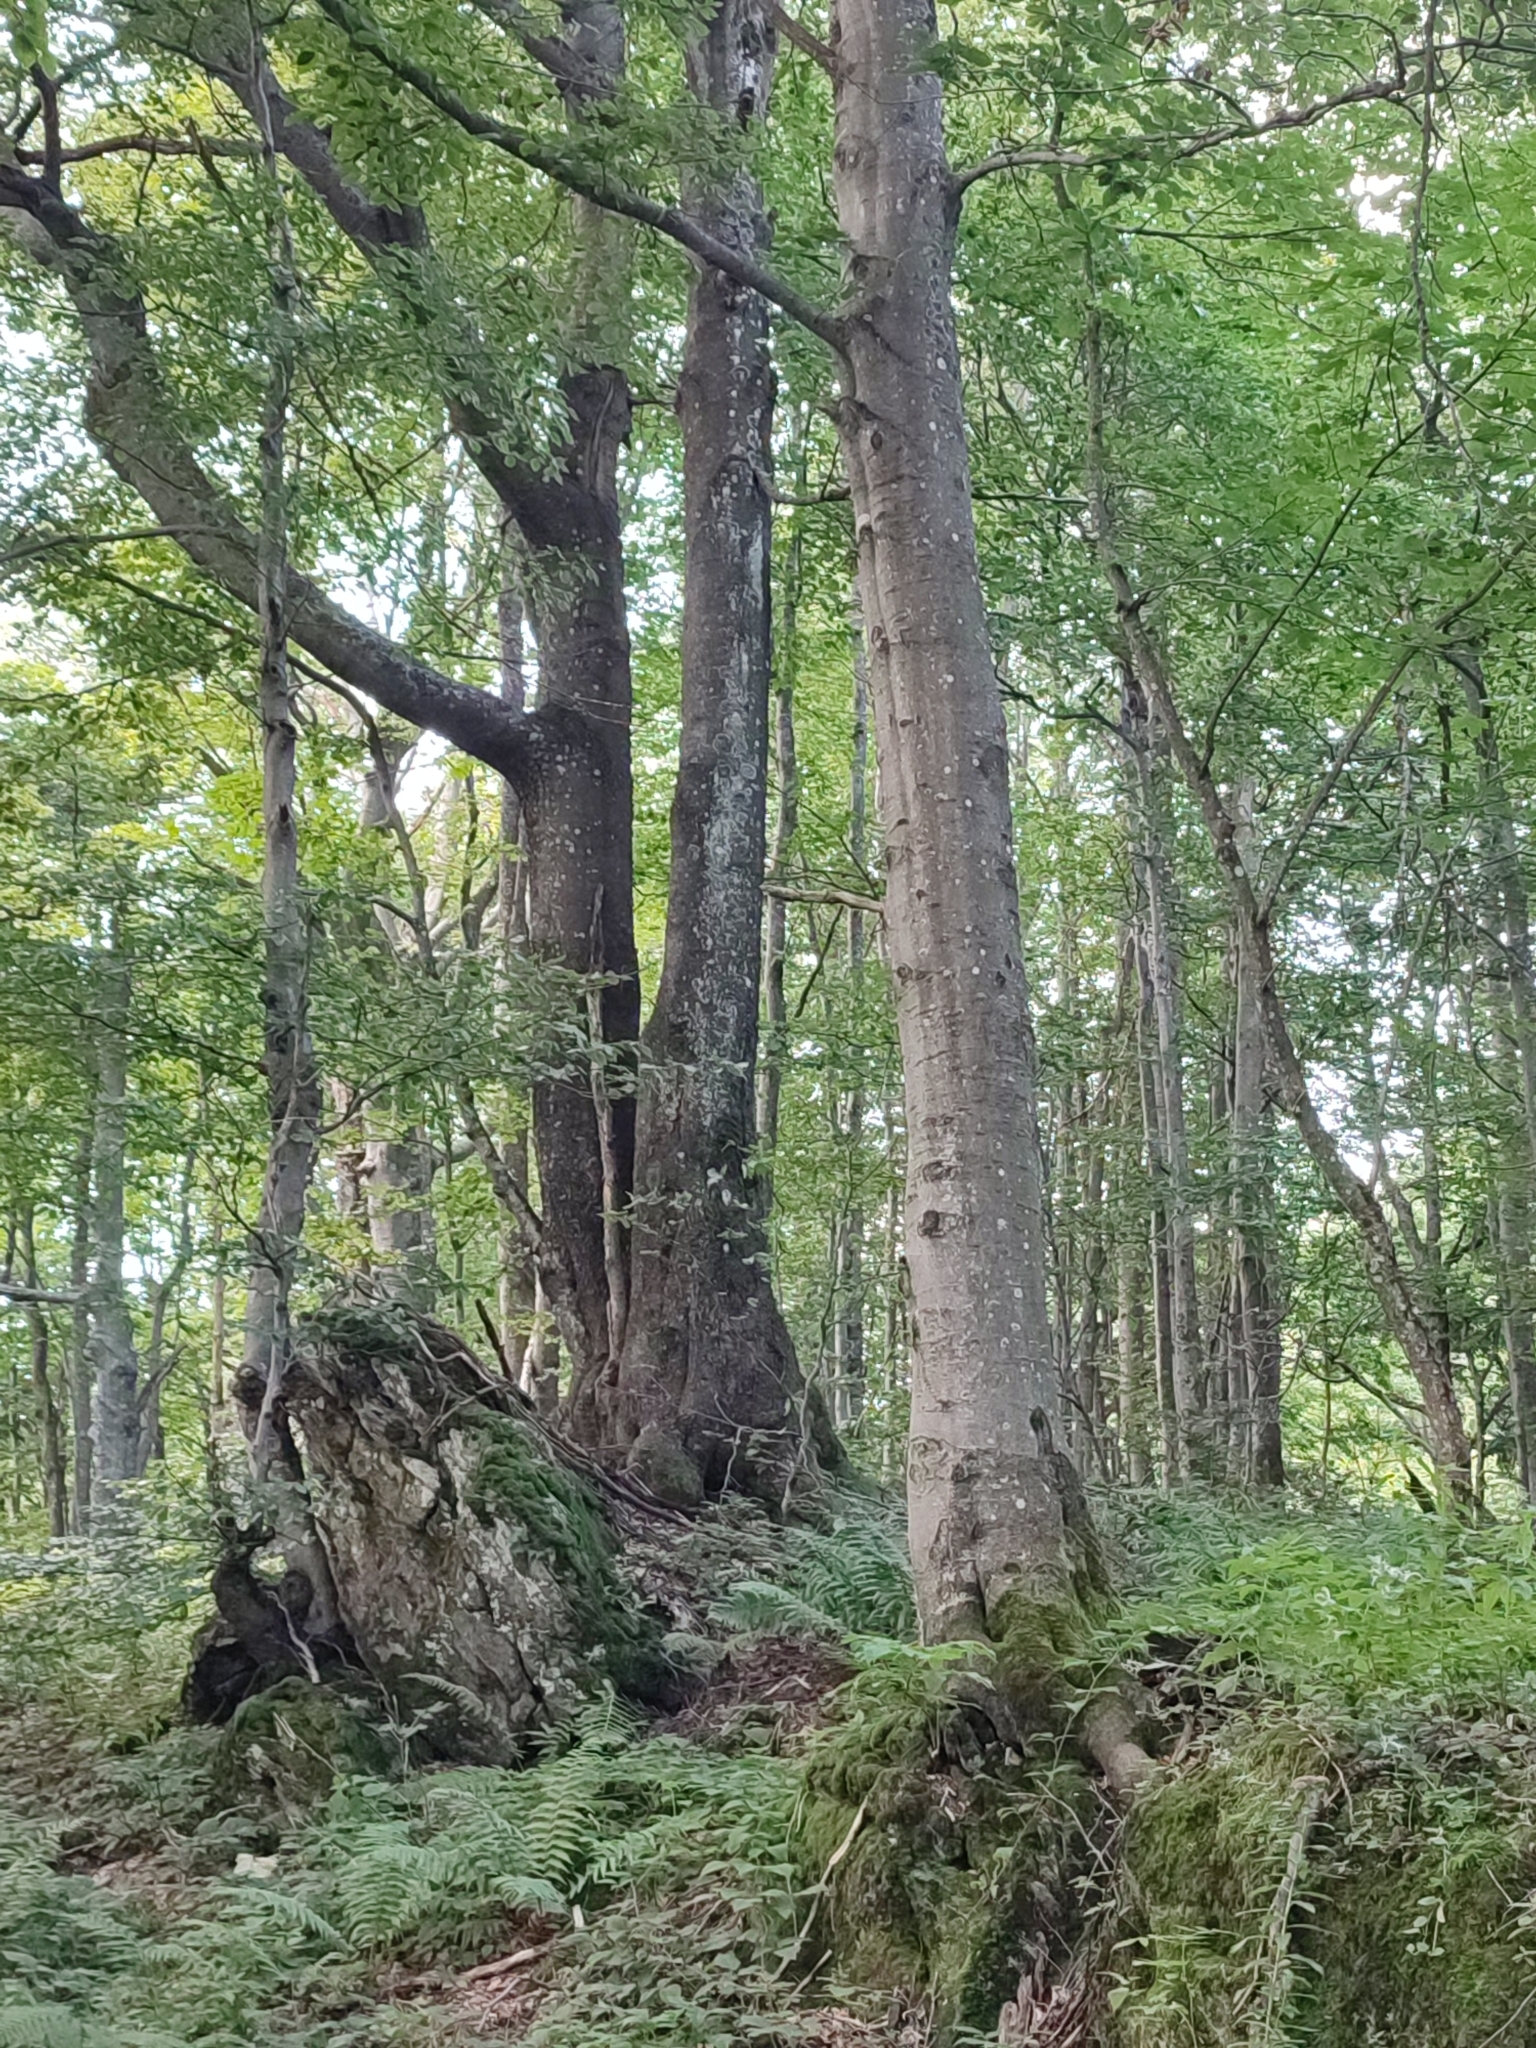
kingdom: Plantae
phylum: Tracheophyta
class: Magnoliopsida
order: Fagales
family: Fagaceae
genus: Fagus
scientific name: Fagus sylvatica
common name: Beech
